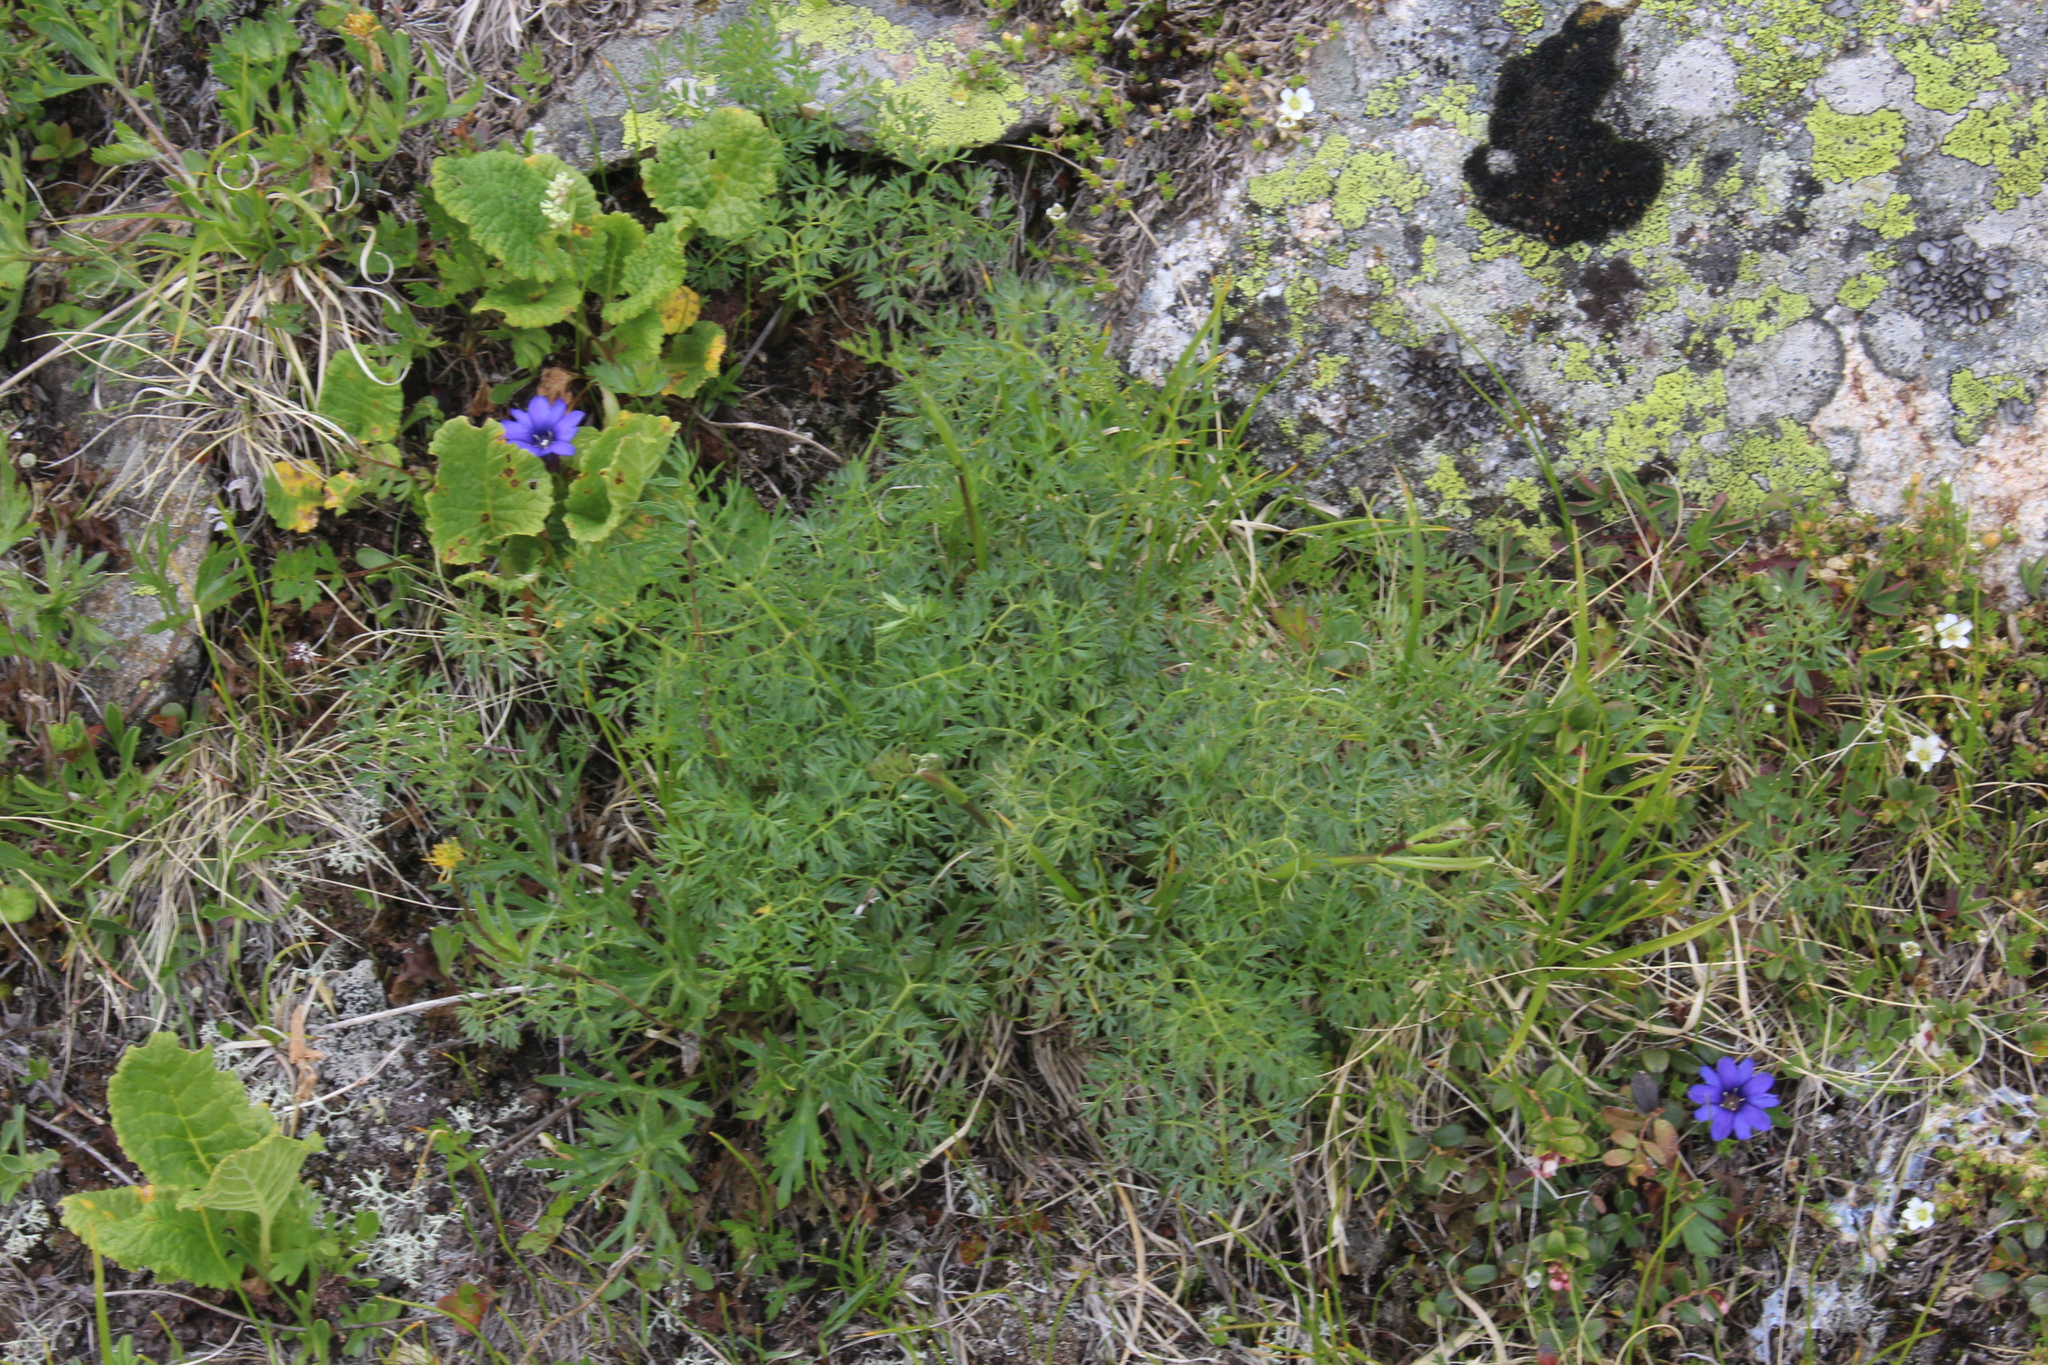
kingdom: Plantae
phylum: Tracheophyta
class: Magnoliopsida
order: Apiales
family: Apiaceae
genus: Lomatocarum
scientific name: Lomatocarum alpinum
